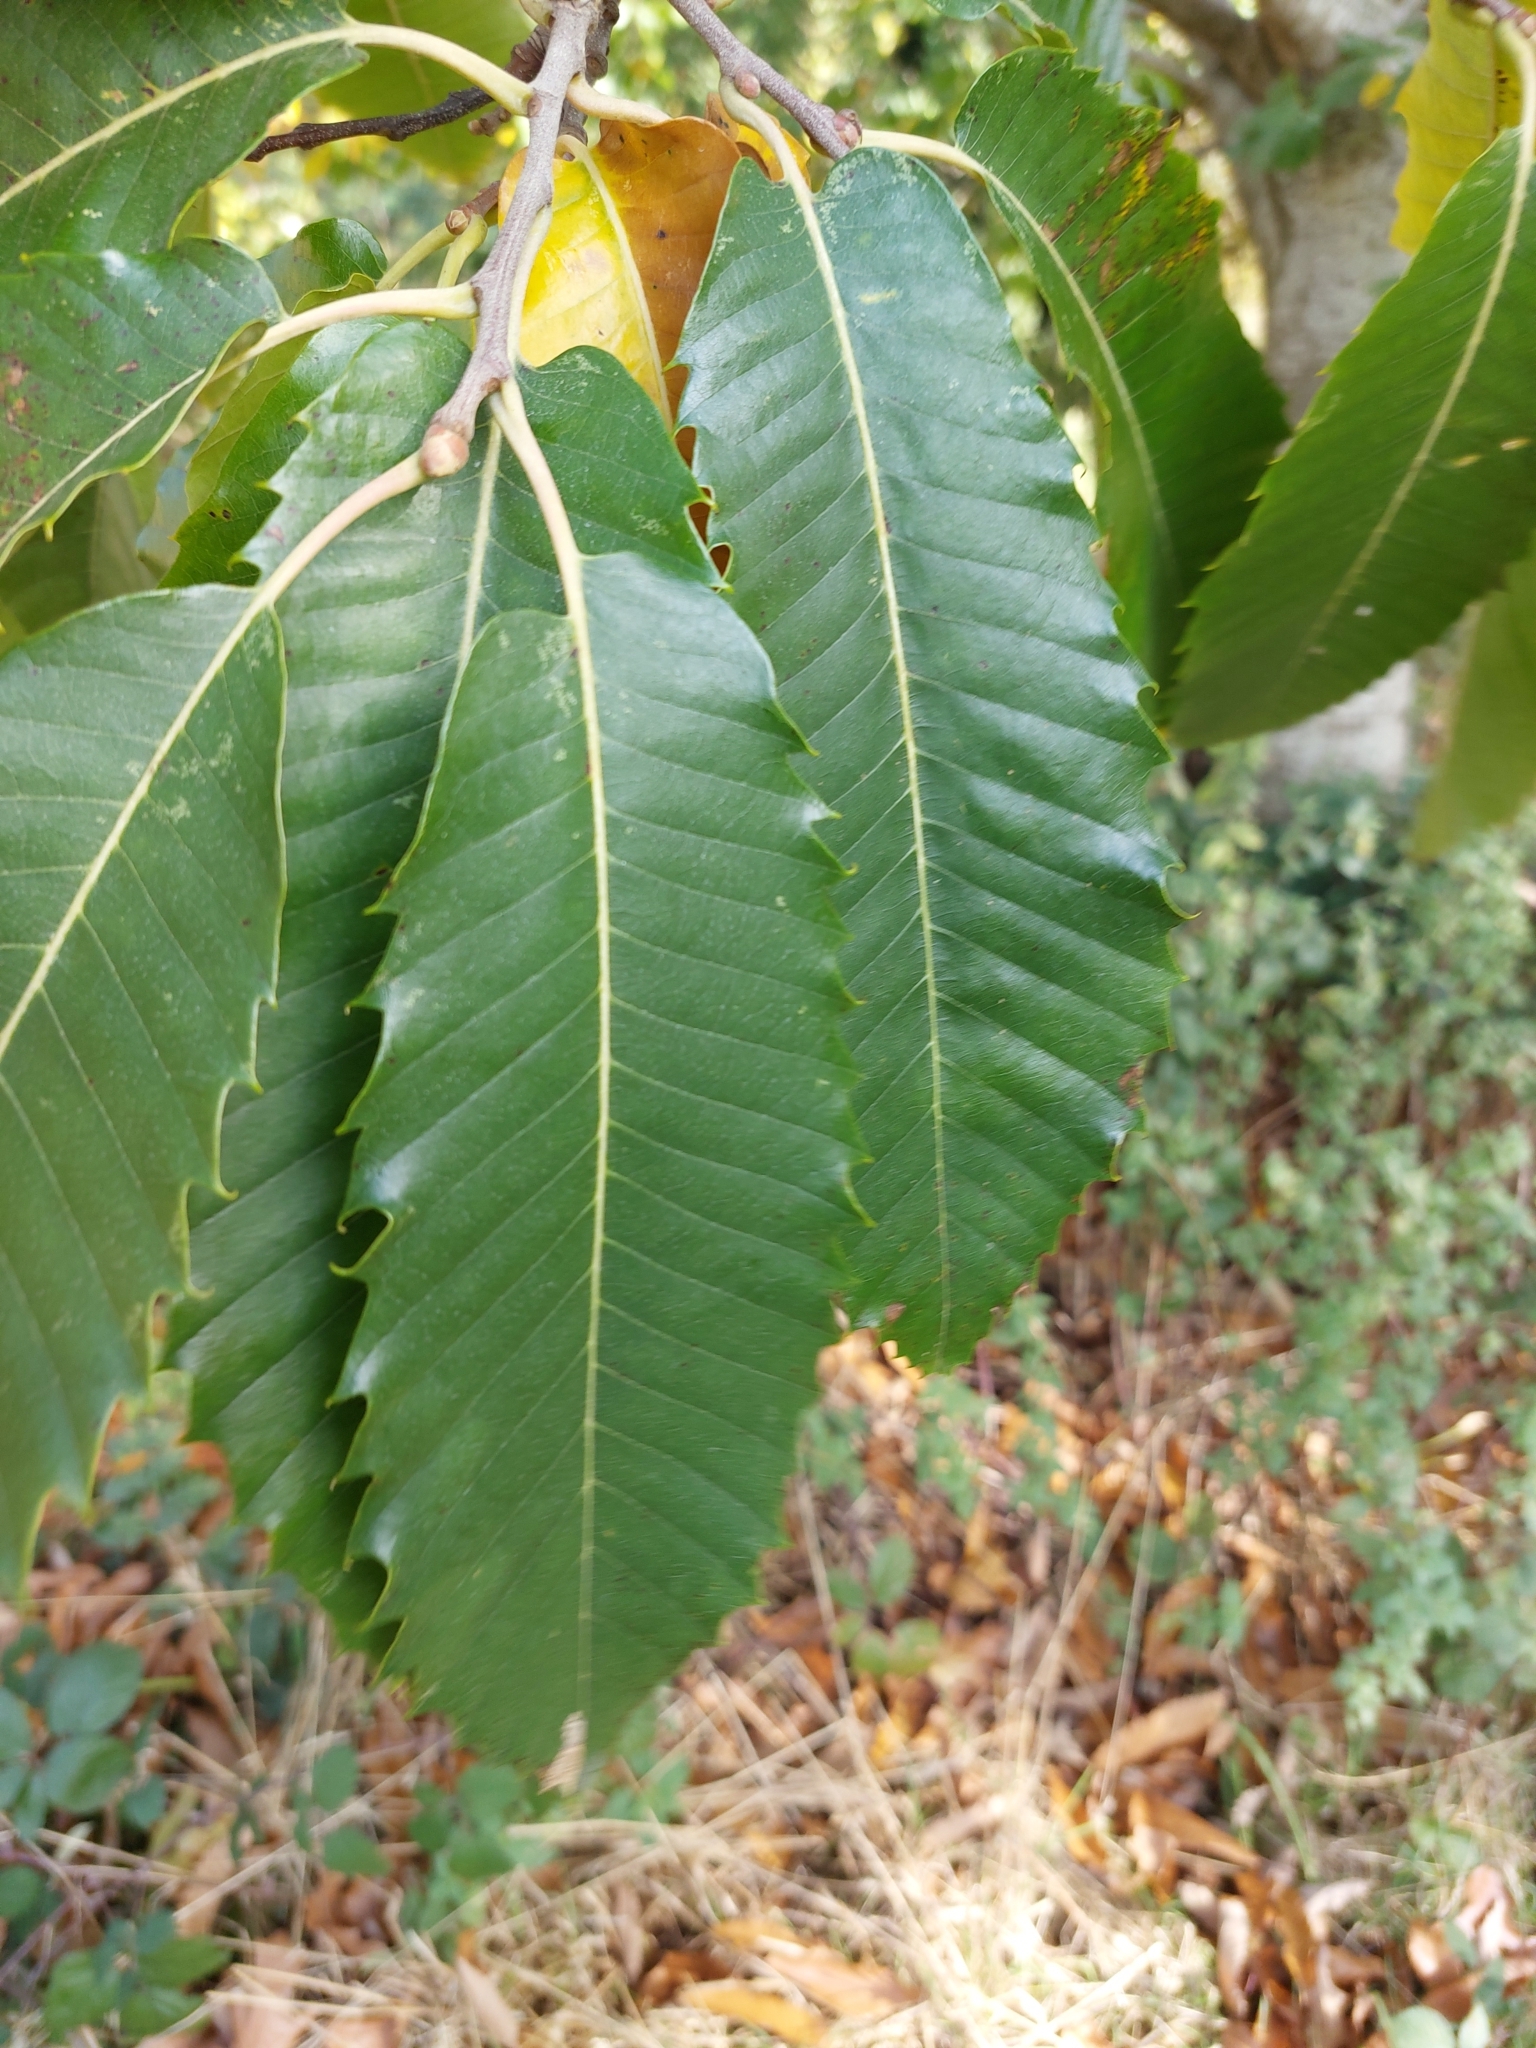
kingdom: Plantae
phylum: Tracheophyta
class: Magnoliopsida
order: Fagales
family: Fagaceae
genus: Castanea
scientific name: Castanea sativa
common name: Sweet chestnut
